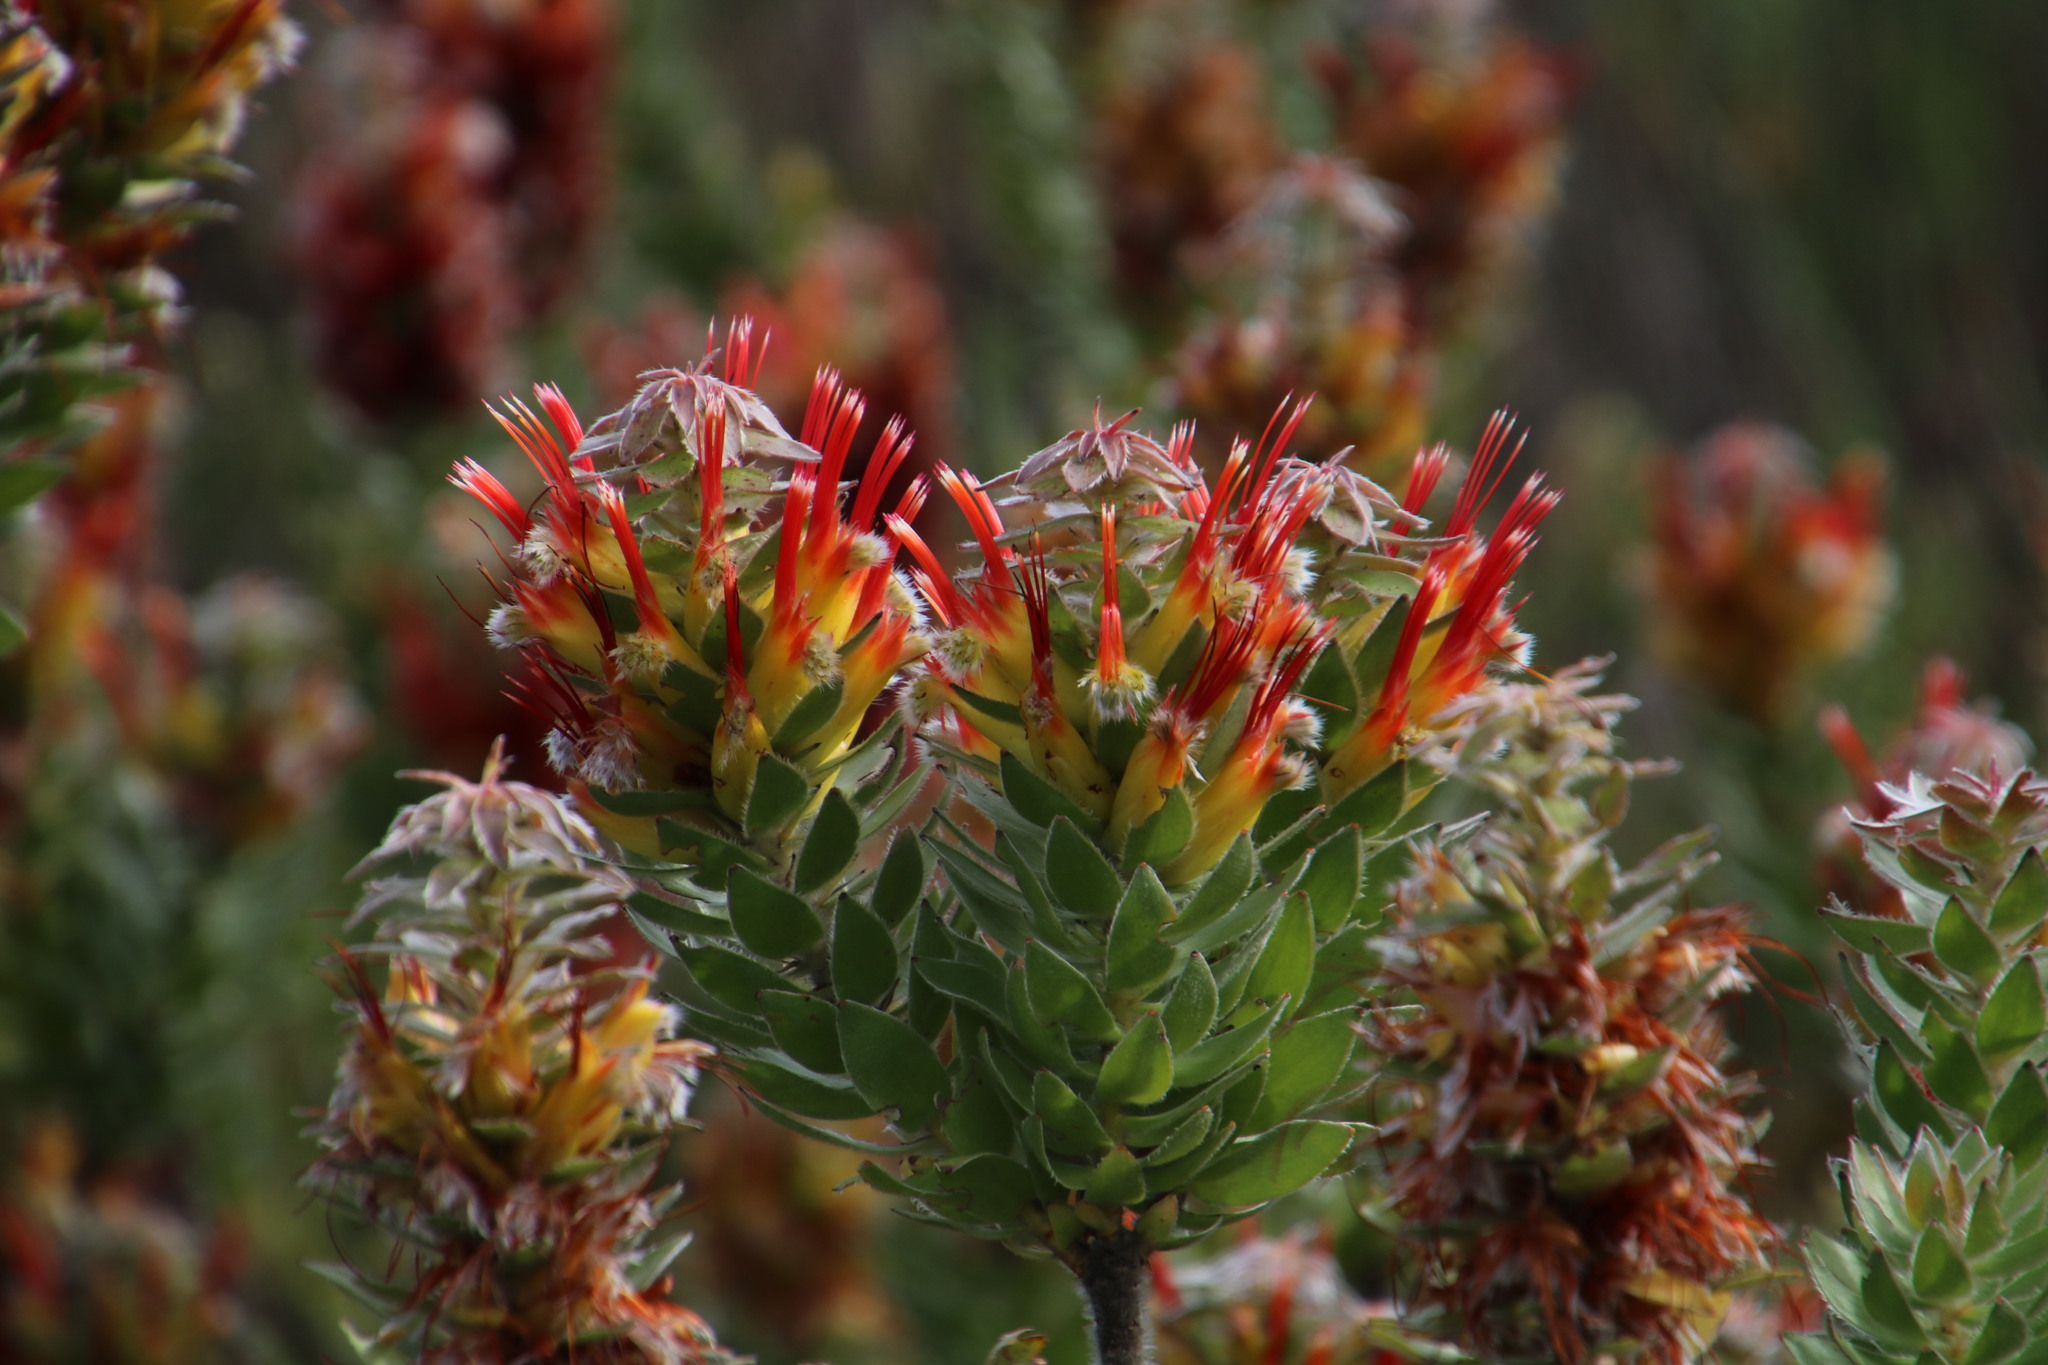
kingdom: Plantae
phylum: Tracheophyta
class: Magnoliopsida
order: Proteales
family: Proteaceae
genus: Mimetes
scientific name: Mimetes hirtus
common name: Marsh pagoda
